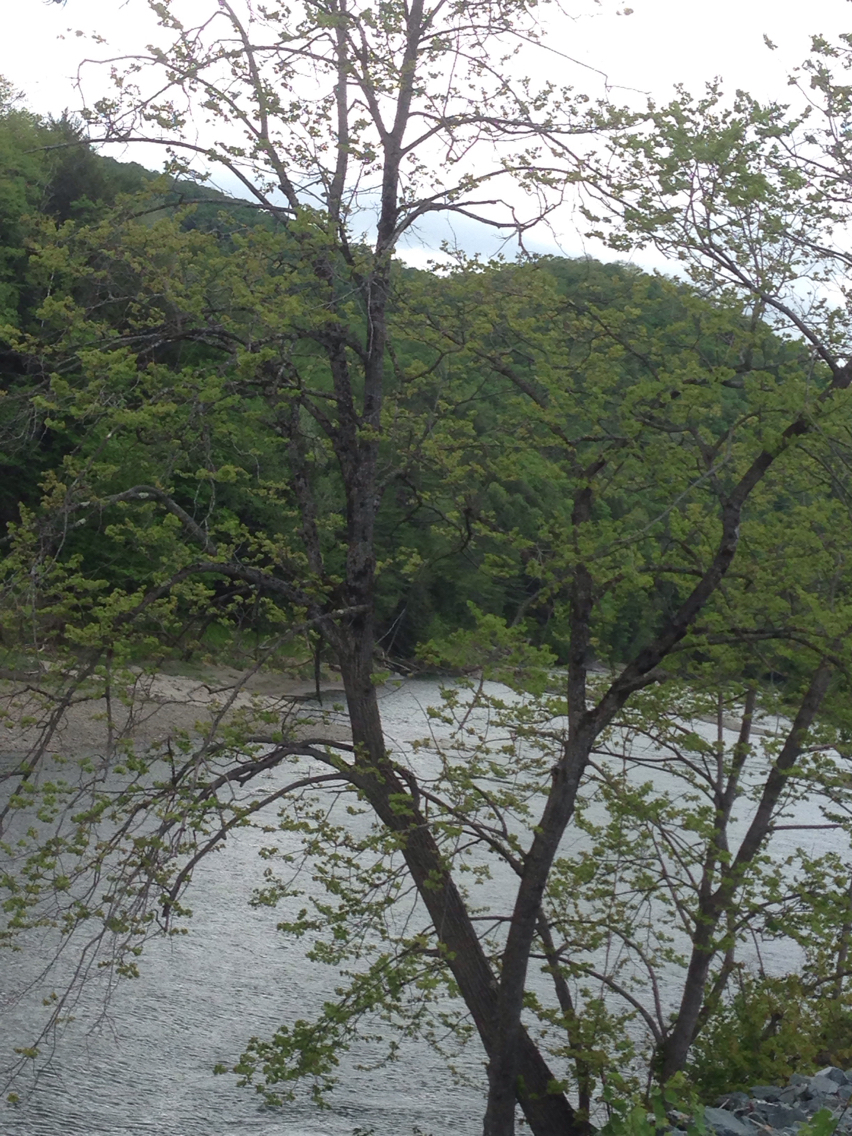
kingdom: Plantae
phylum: Tracheophyta
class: Magnoliopsida
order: Malvales
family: Malvaceae
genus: Tilia
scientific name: Tilia americana
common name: Basswood
